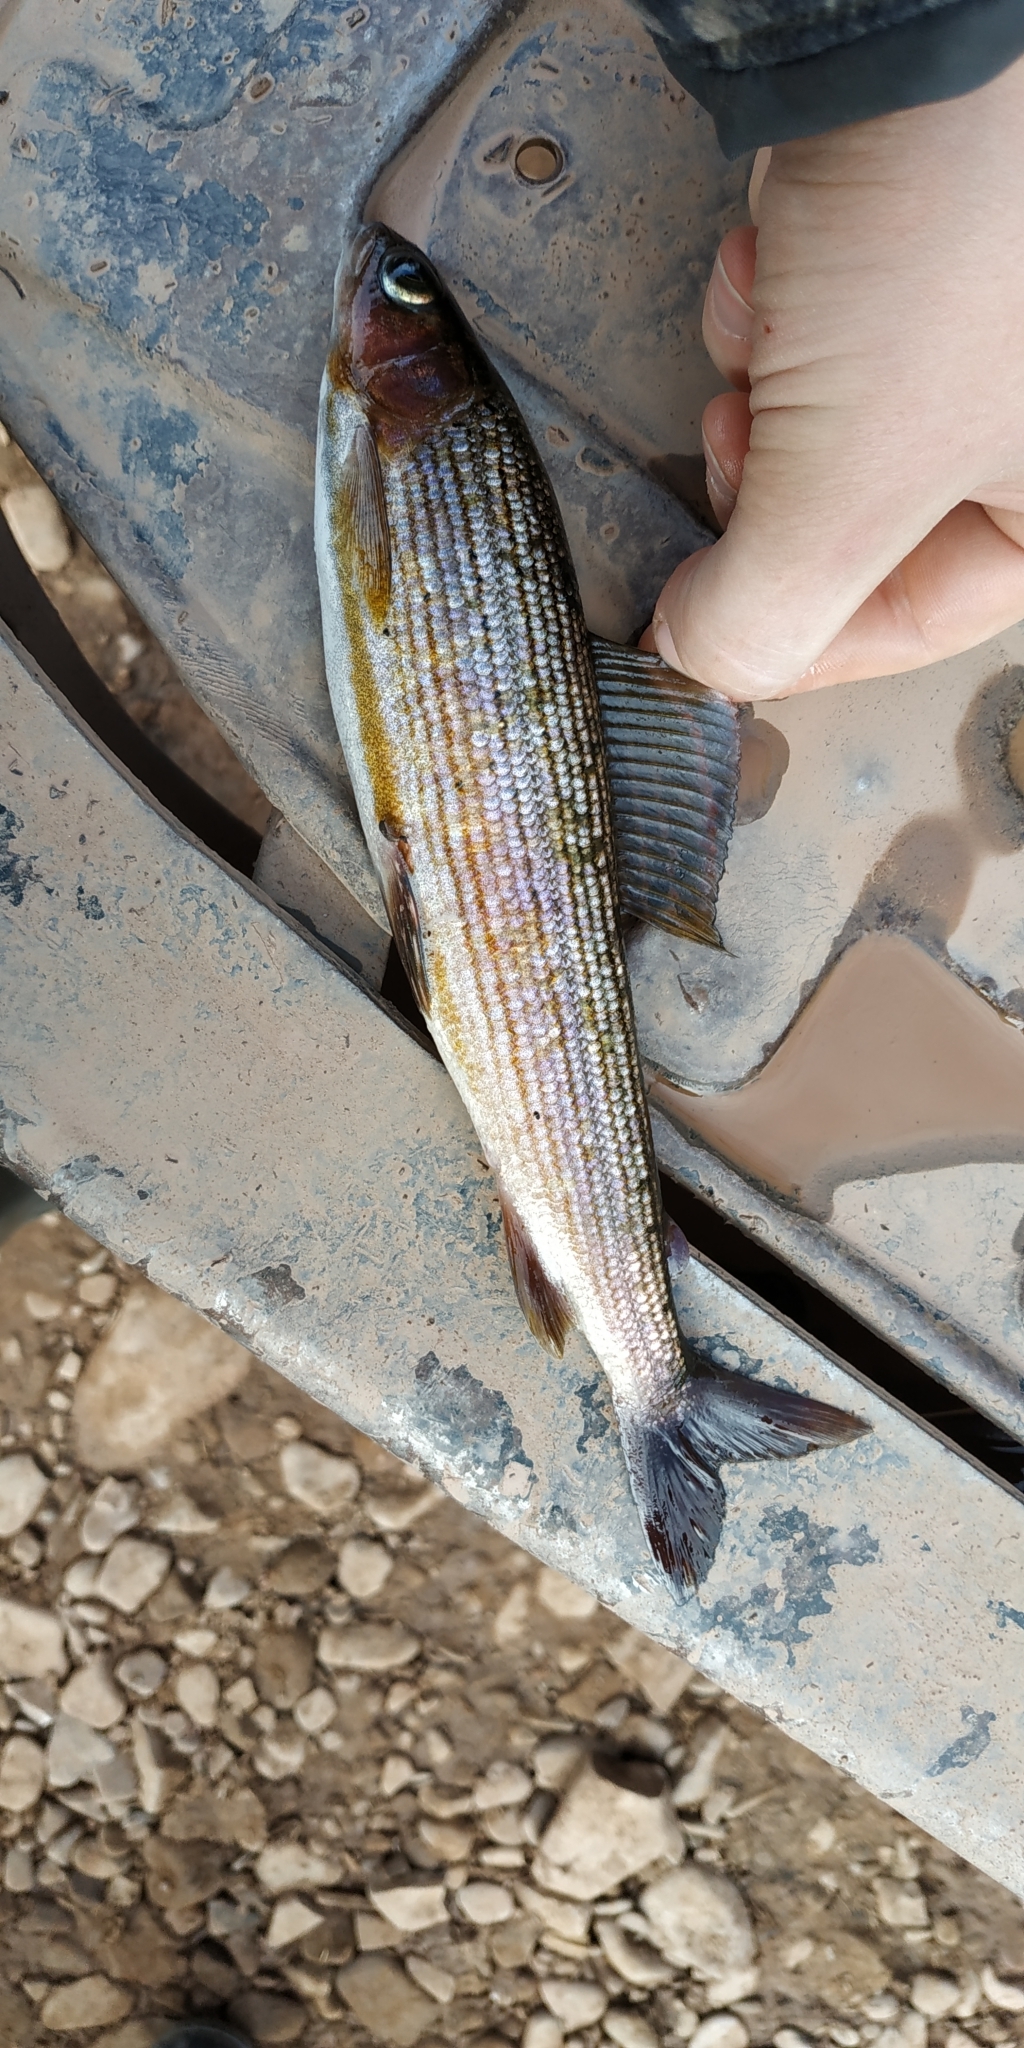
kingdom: Animalia
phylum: Chordata
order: Salmoniformes
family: Salmonidae
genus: Thymallus
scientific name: Thymallus baicalolenensis
